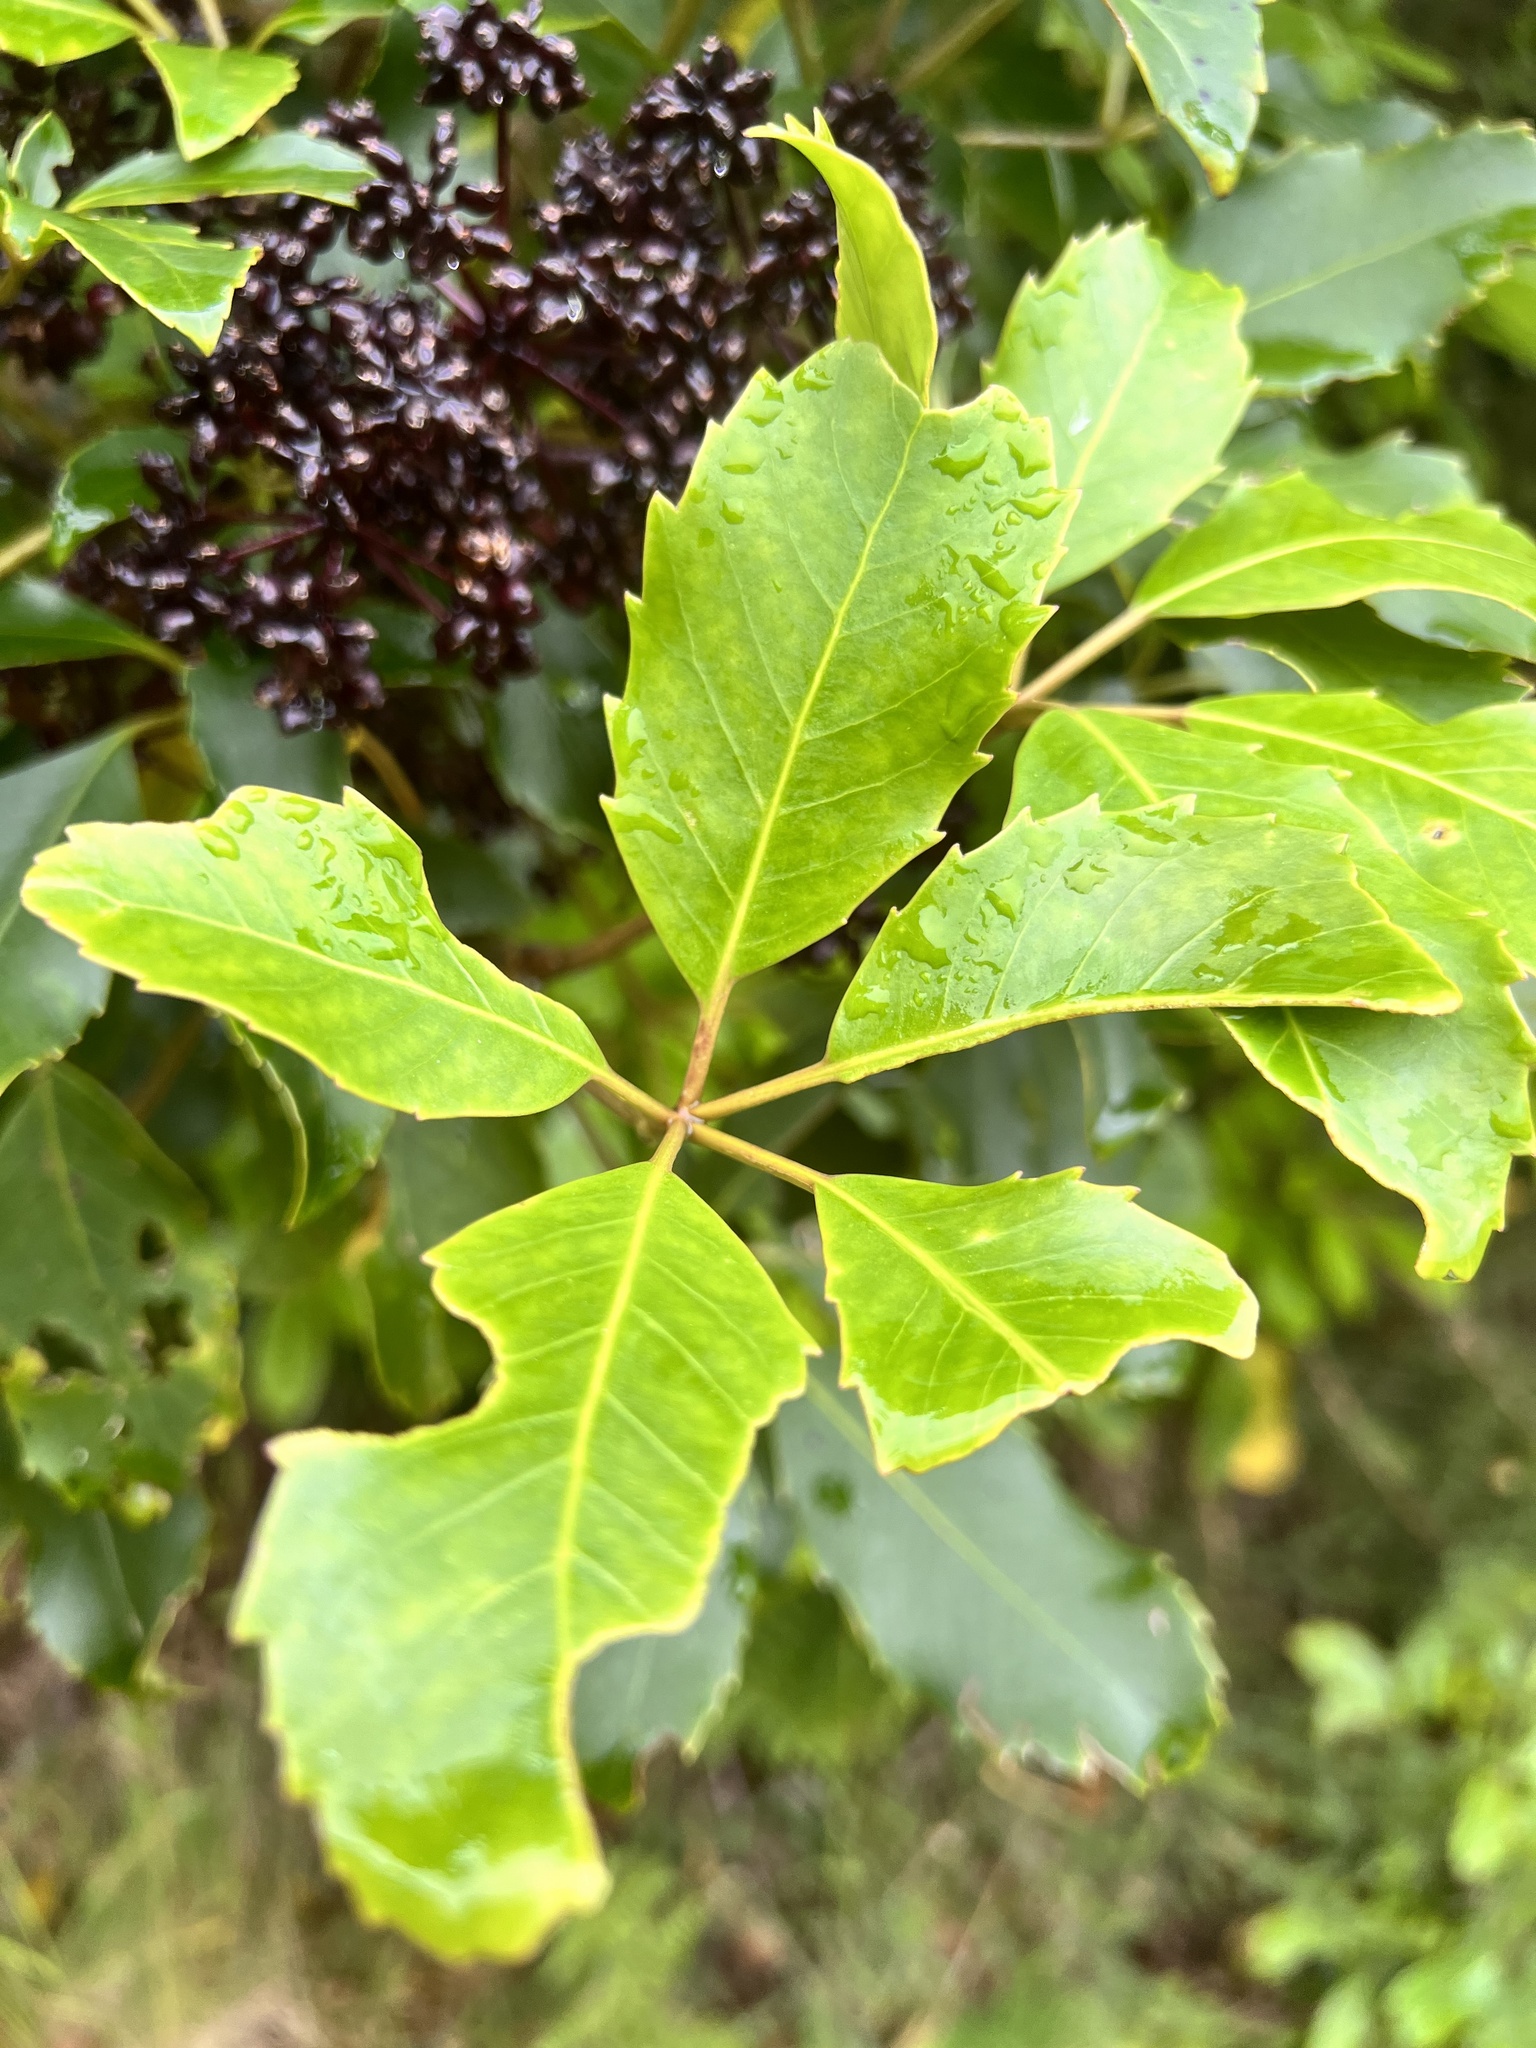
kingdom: Plantae
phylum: Tracheophyta
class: Magnoliopsida
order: Apiales
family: Araliaceae
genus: Neopanax
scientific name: Neopanax arboreus
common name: Five-fingers
